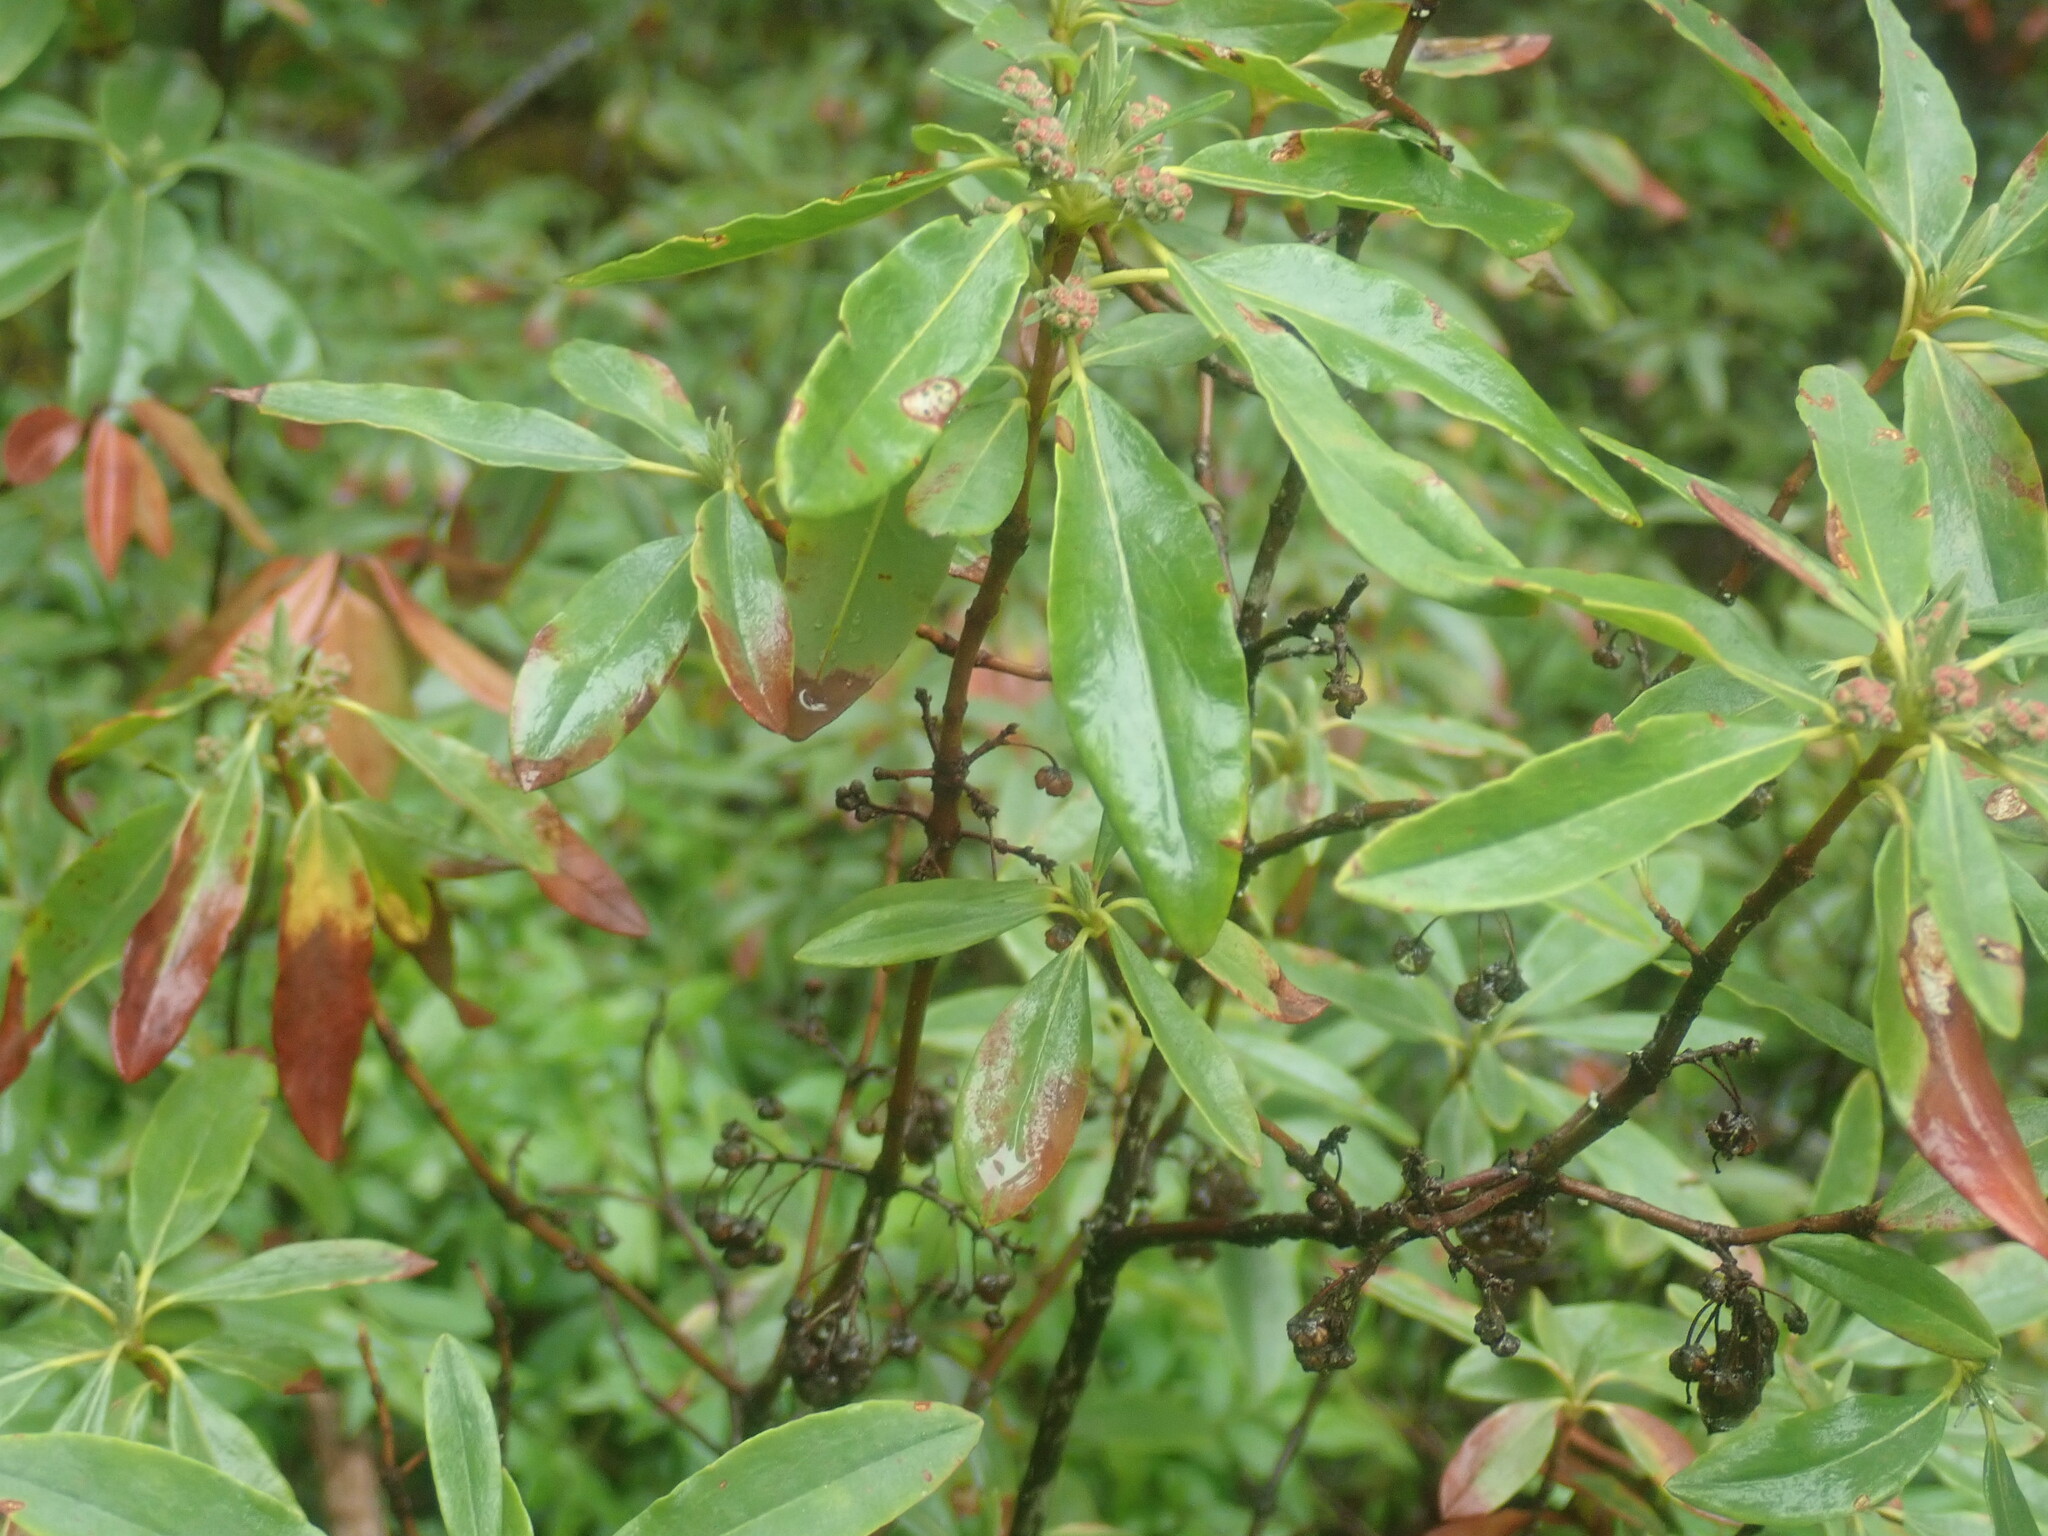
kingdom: Plantae
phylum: Tracheophyta
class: Magnoliopsida
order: Ericales
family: Ericaceae
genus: Kalmia
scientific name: Kalmia angustifolia
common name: Sheep-laurel
